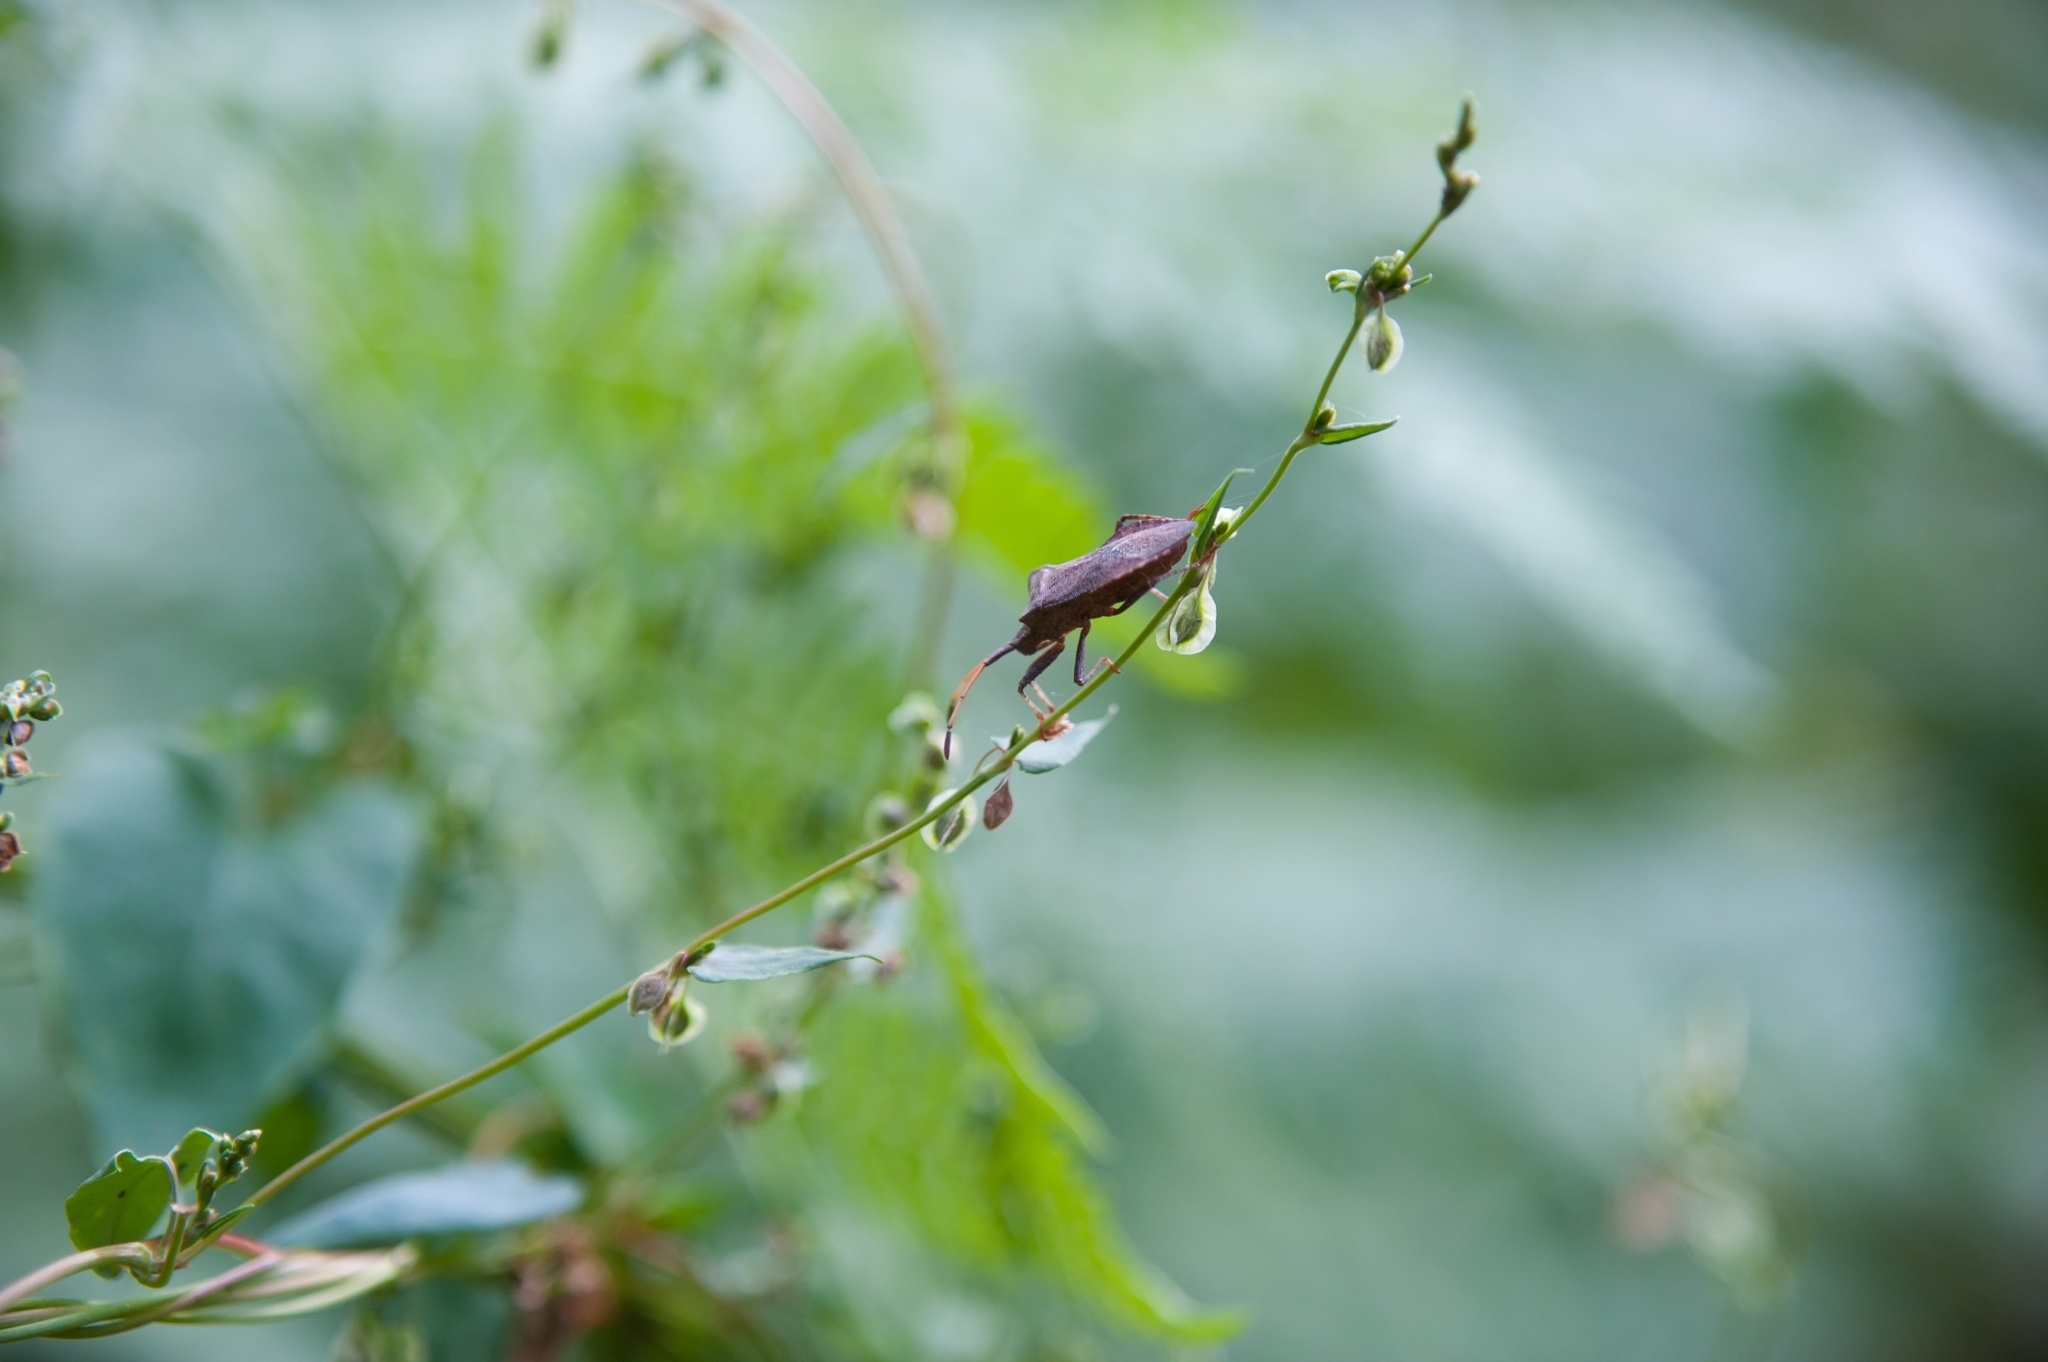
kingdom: Animalia
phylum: Arthropoda
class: Insecta
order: Hemiptera
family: Coreidae
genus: Coreus
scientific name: Coreus marginatus
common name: Dock bug
